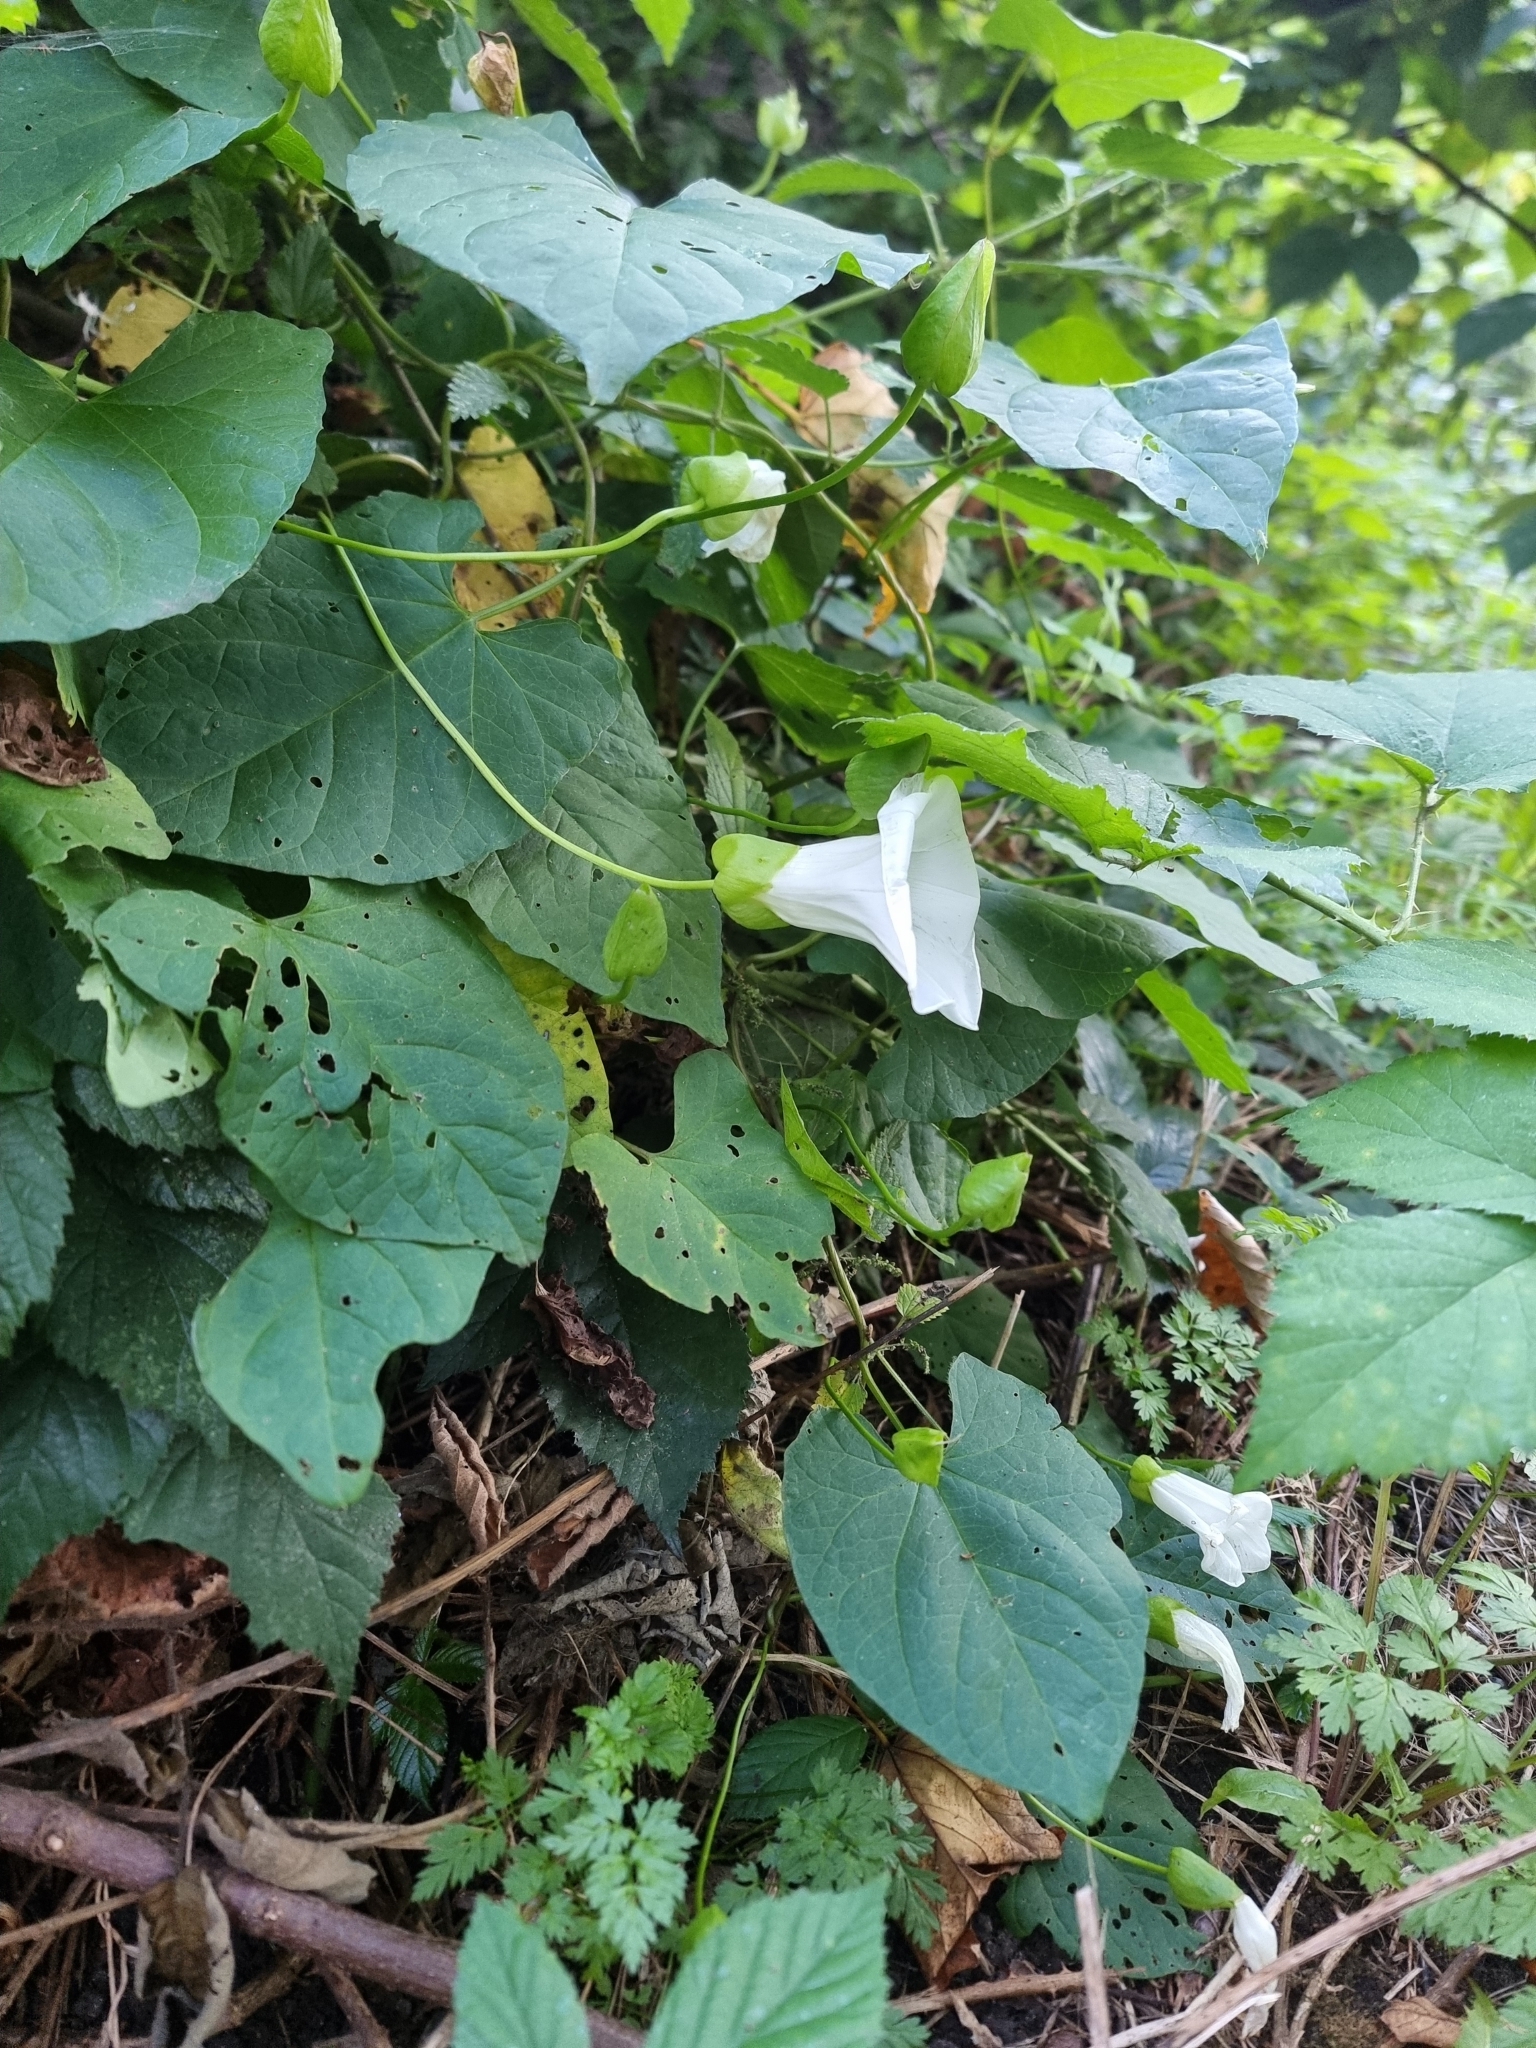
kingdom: Plantae
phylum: Tracheophyta
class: Magnoliopsida
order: Solanales
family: Convolvulaceae
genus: Calystegia
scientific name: Calystegia silvatica
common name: Large bindweed
